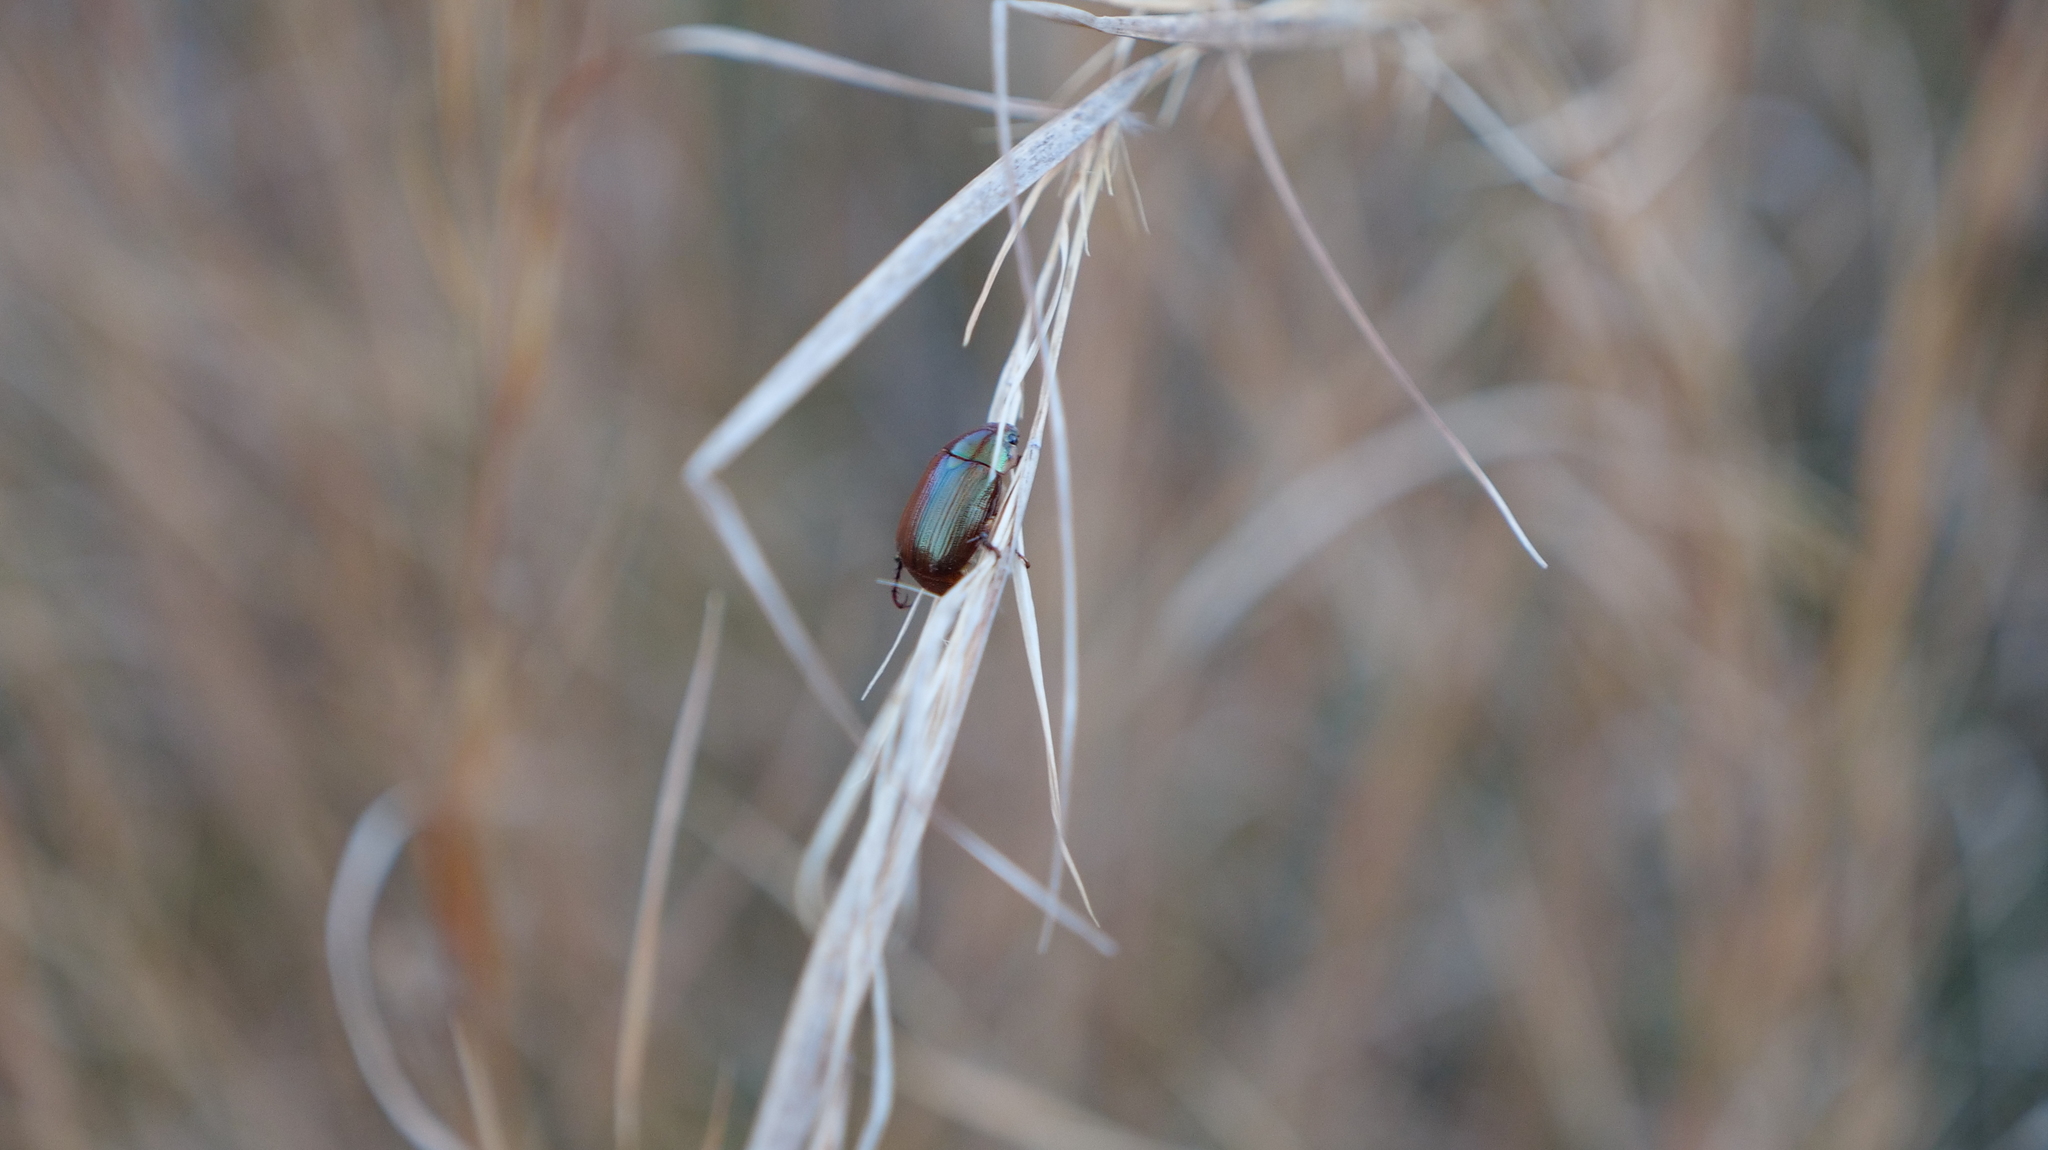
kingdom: Animalia
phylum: Arthropoda
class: Insecta
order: Coleoptera
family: Scarabaeidae
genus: Callistethus
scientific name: Callistethus marginatus
